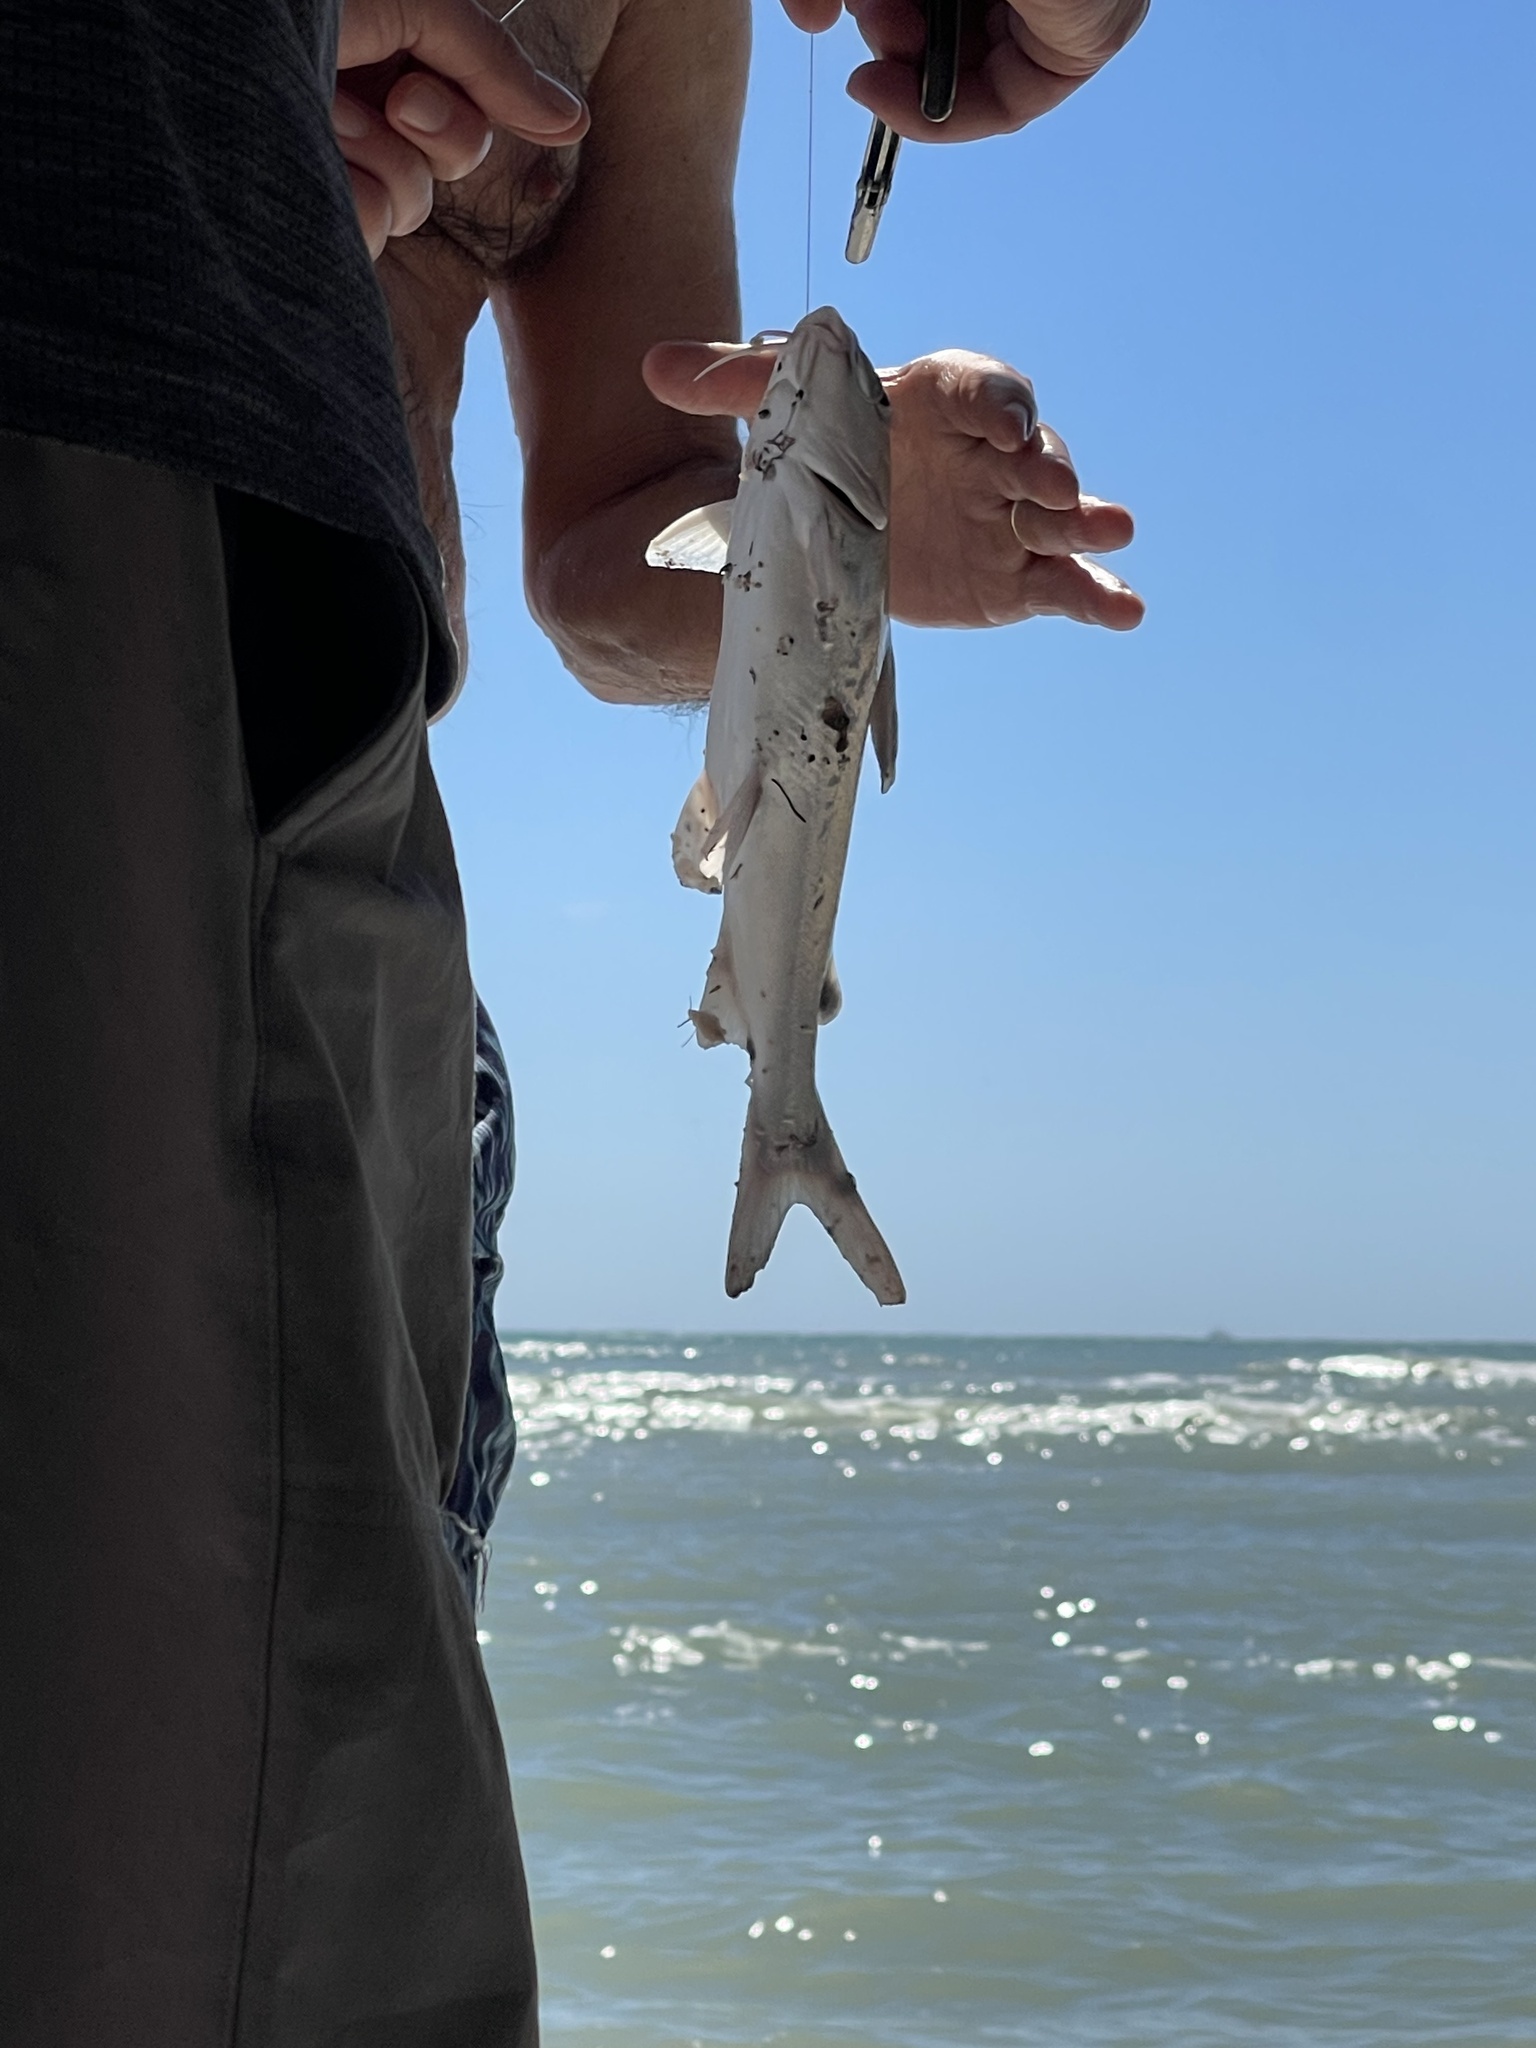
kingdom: Animalia
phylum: Chordata
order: Siluriformes
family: Ariidae
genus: Ariopsis
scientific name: Ariopsis felis
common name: Hardhead catfish
